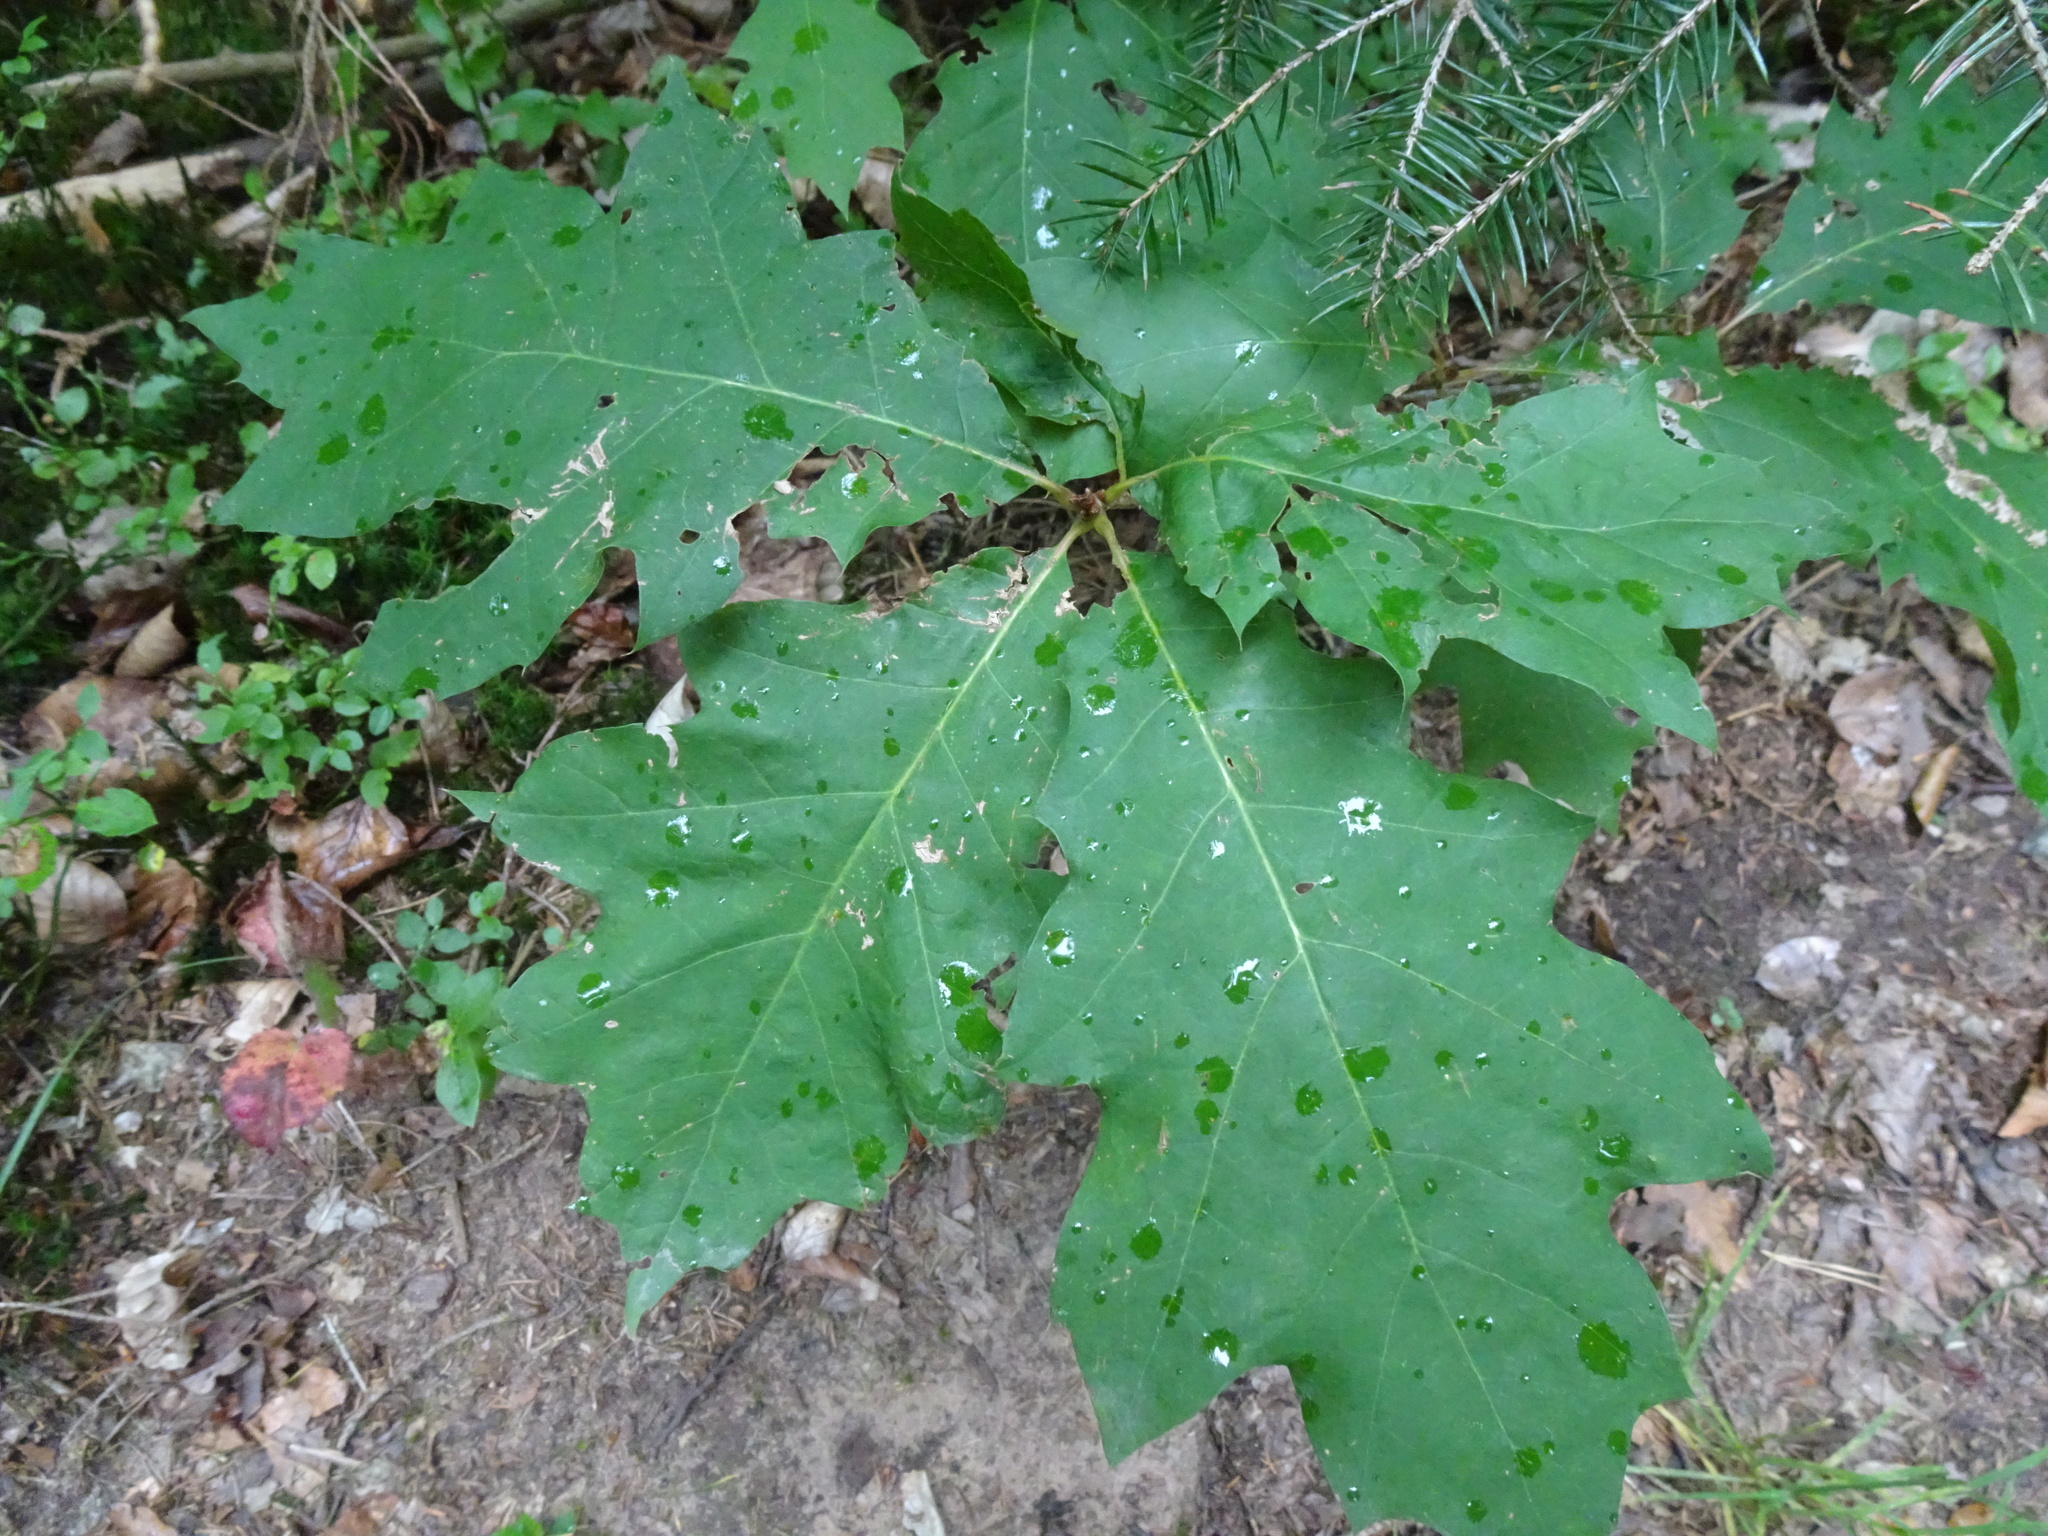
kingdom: Plantae
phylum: Tracheophyta
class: Magnoliopsida
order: Fagales
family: Fagaceae
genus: Quercus
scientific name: Quercus rubra
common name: Red oak
